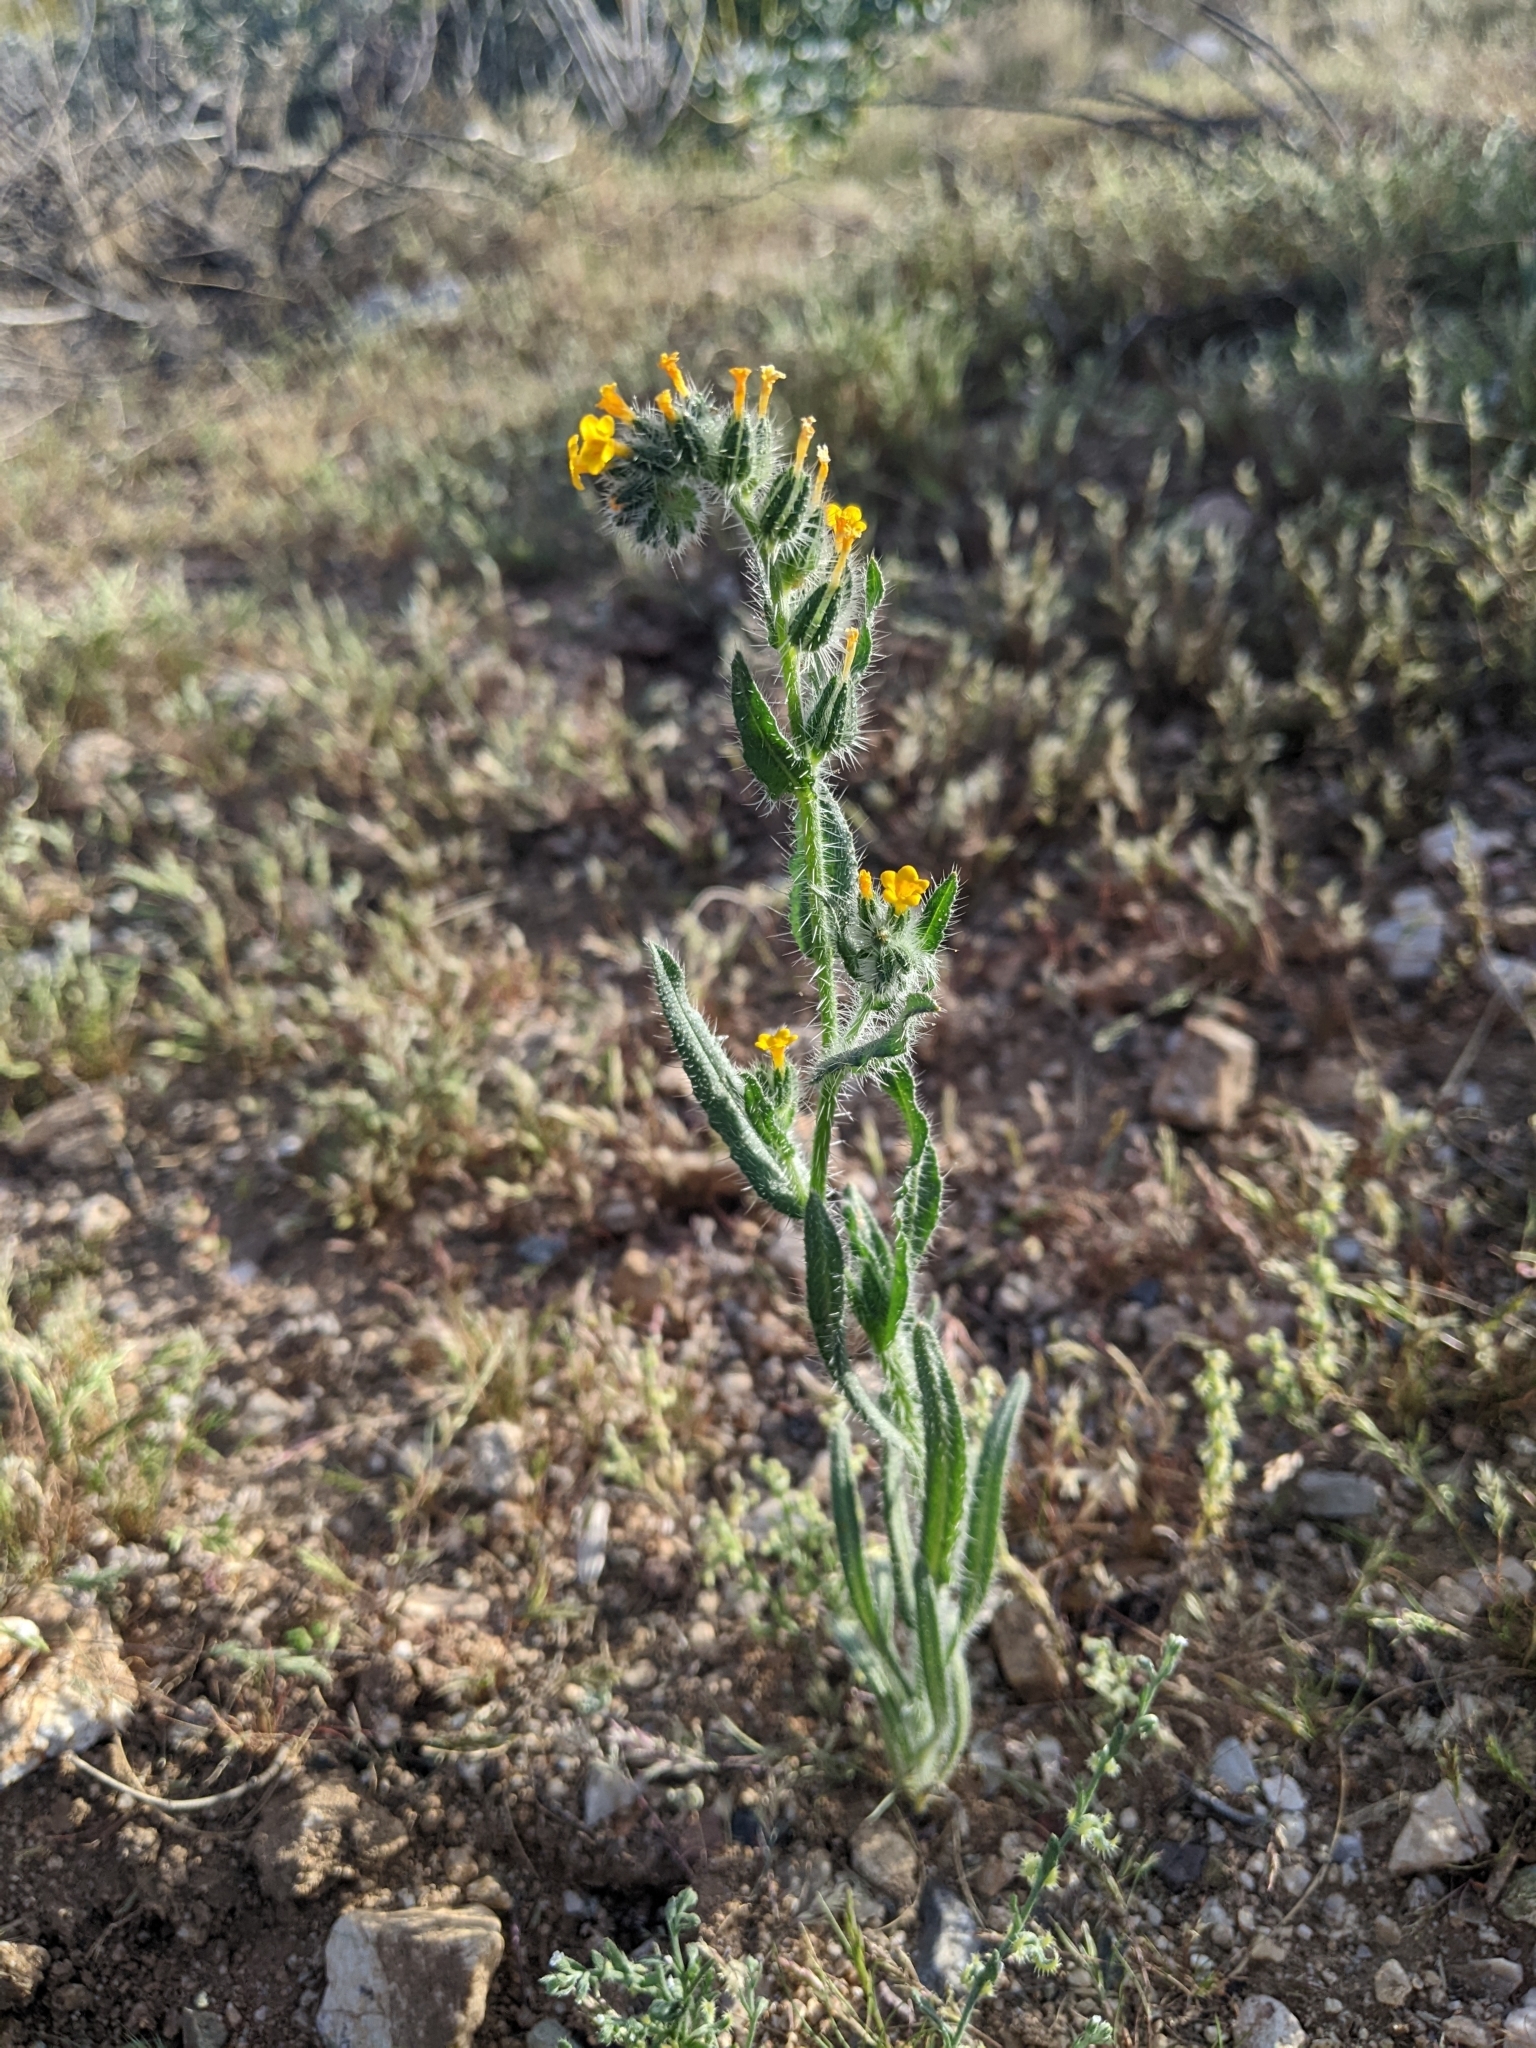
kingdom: Plantae
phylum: Tracheophyta
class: Magnoliopsida
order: Boraginales
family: Boraginaceae
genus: Amsinckia
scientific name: Amsinckia menziesii
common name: Menzies' fiddleneck
